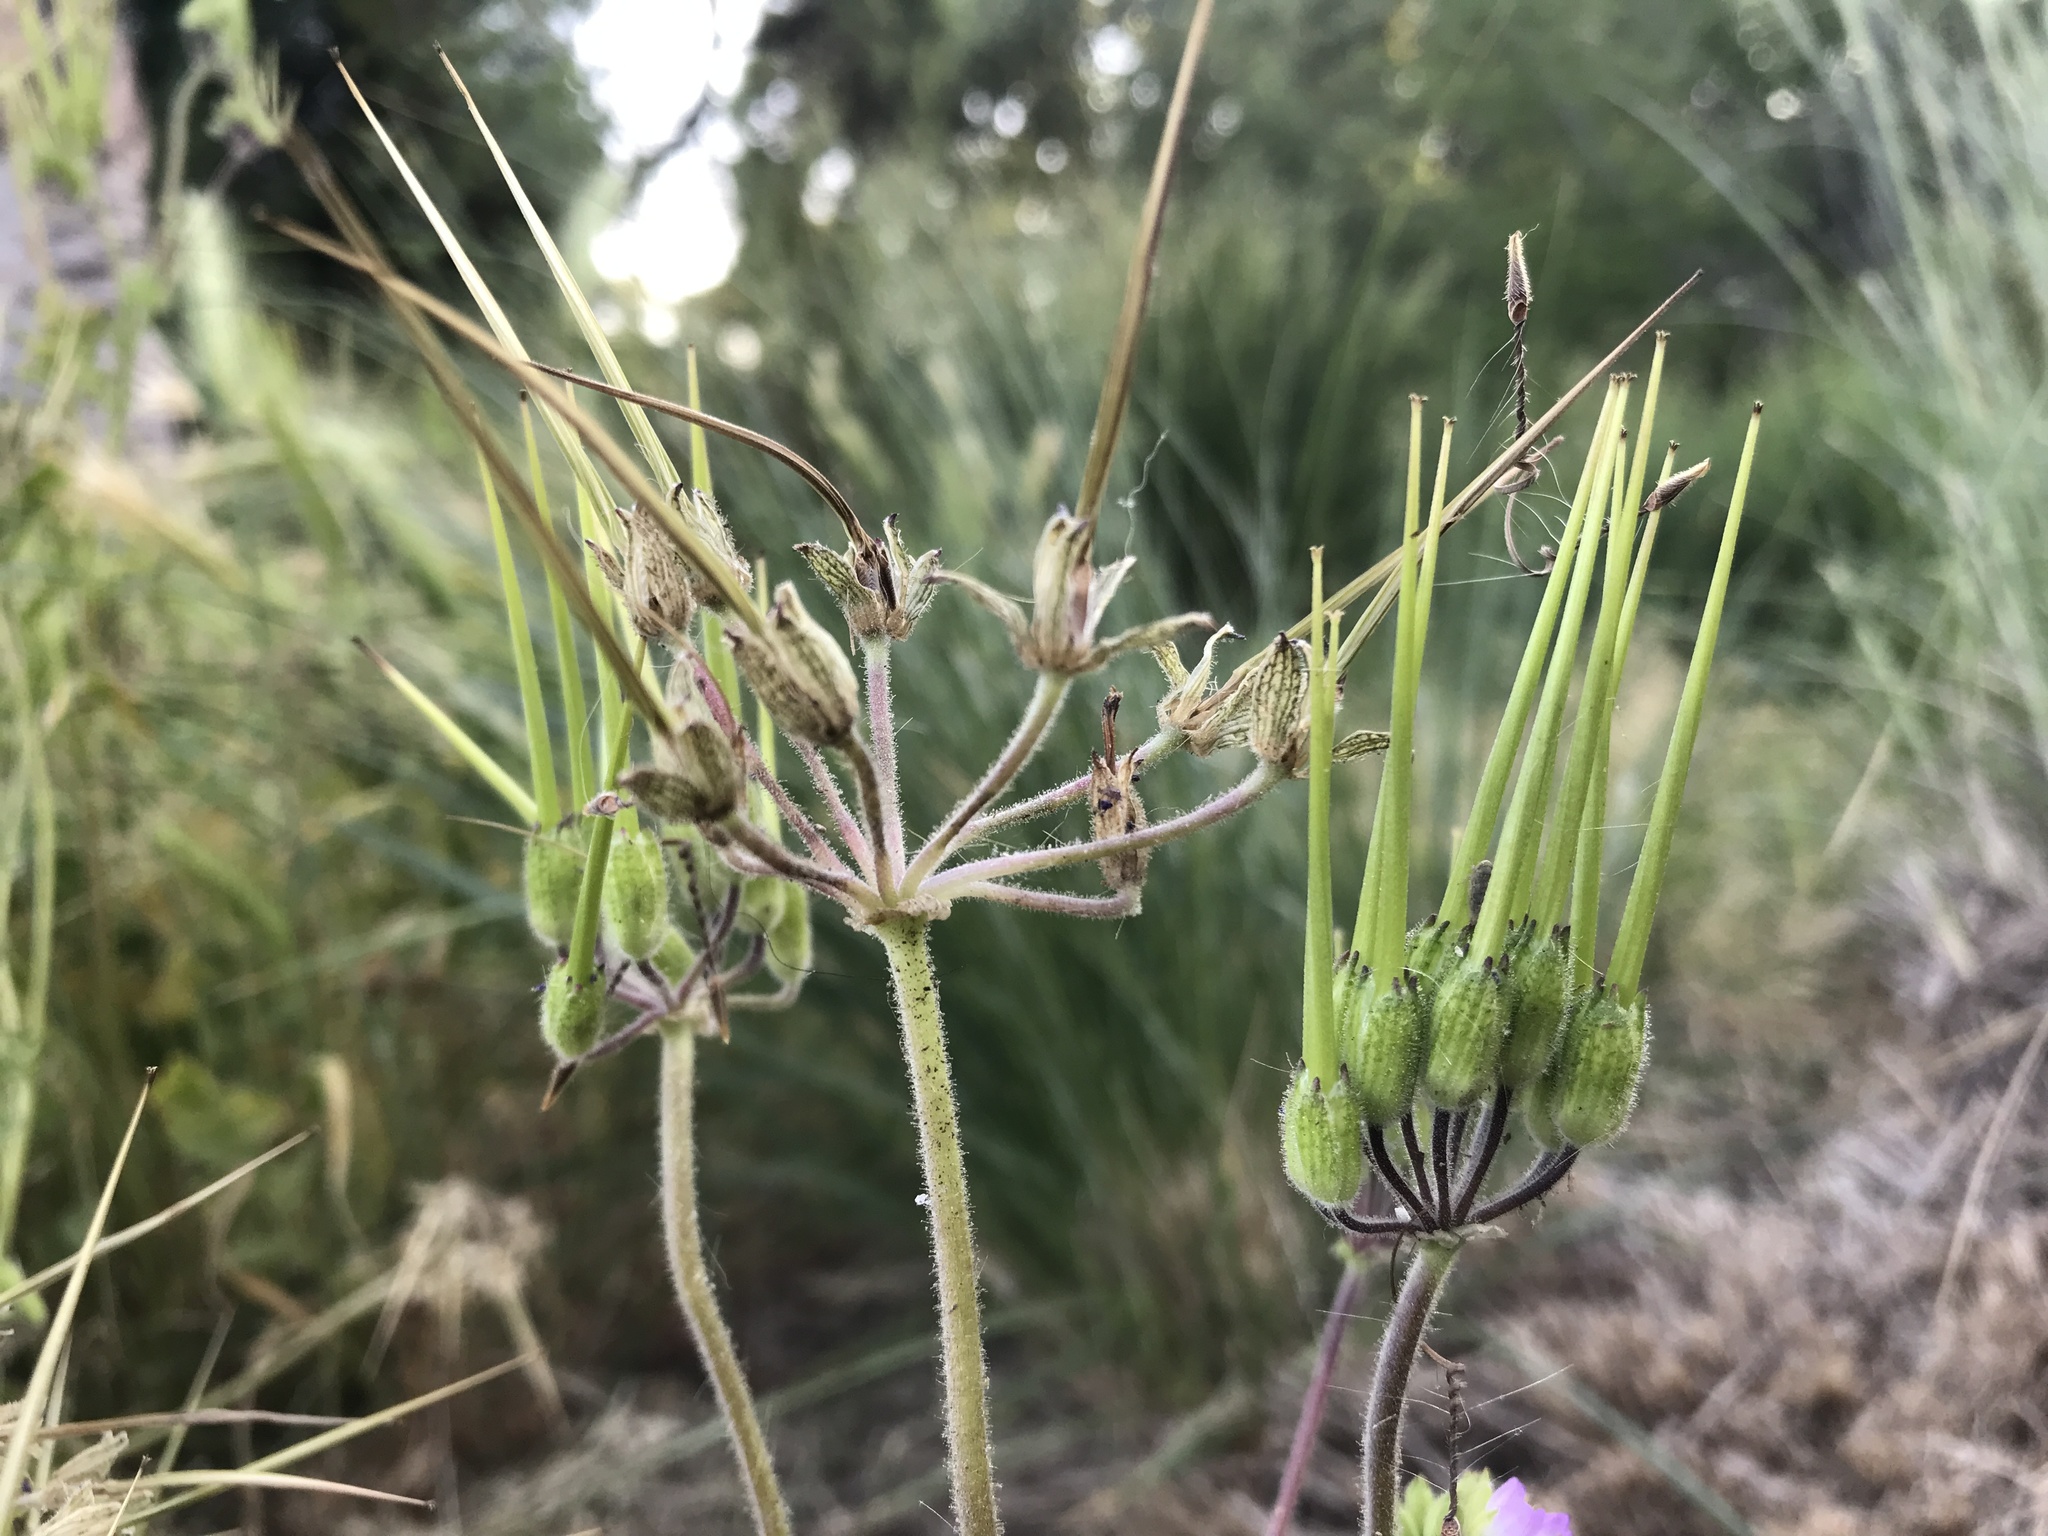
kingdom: Plantae
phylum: Tracheophyta
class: Magnoliopsida
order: Geraniales
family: Geraniaceae
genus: Erodium
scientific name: Erodium moschatum
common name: Musk stork's-bill
